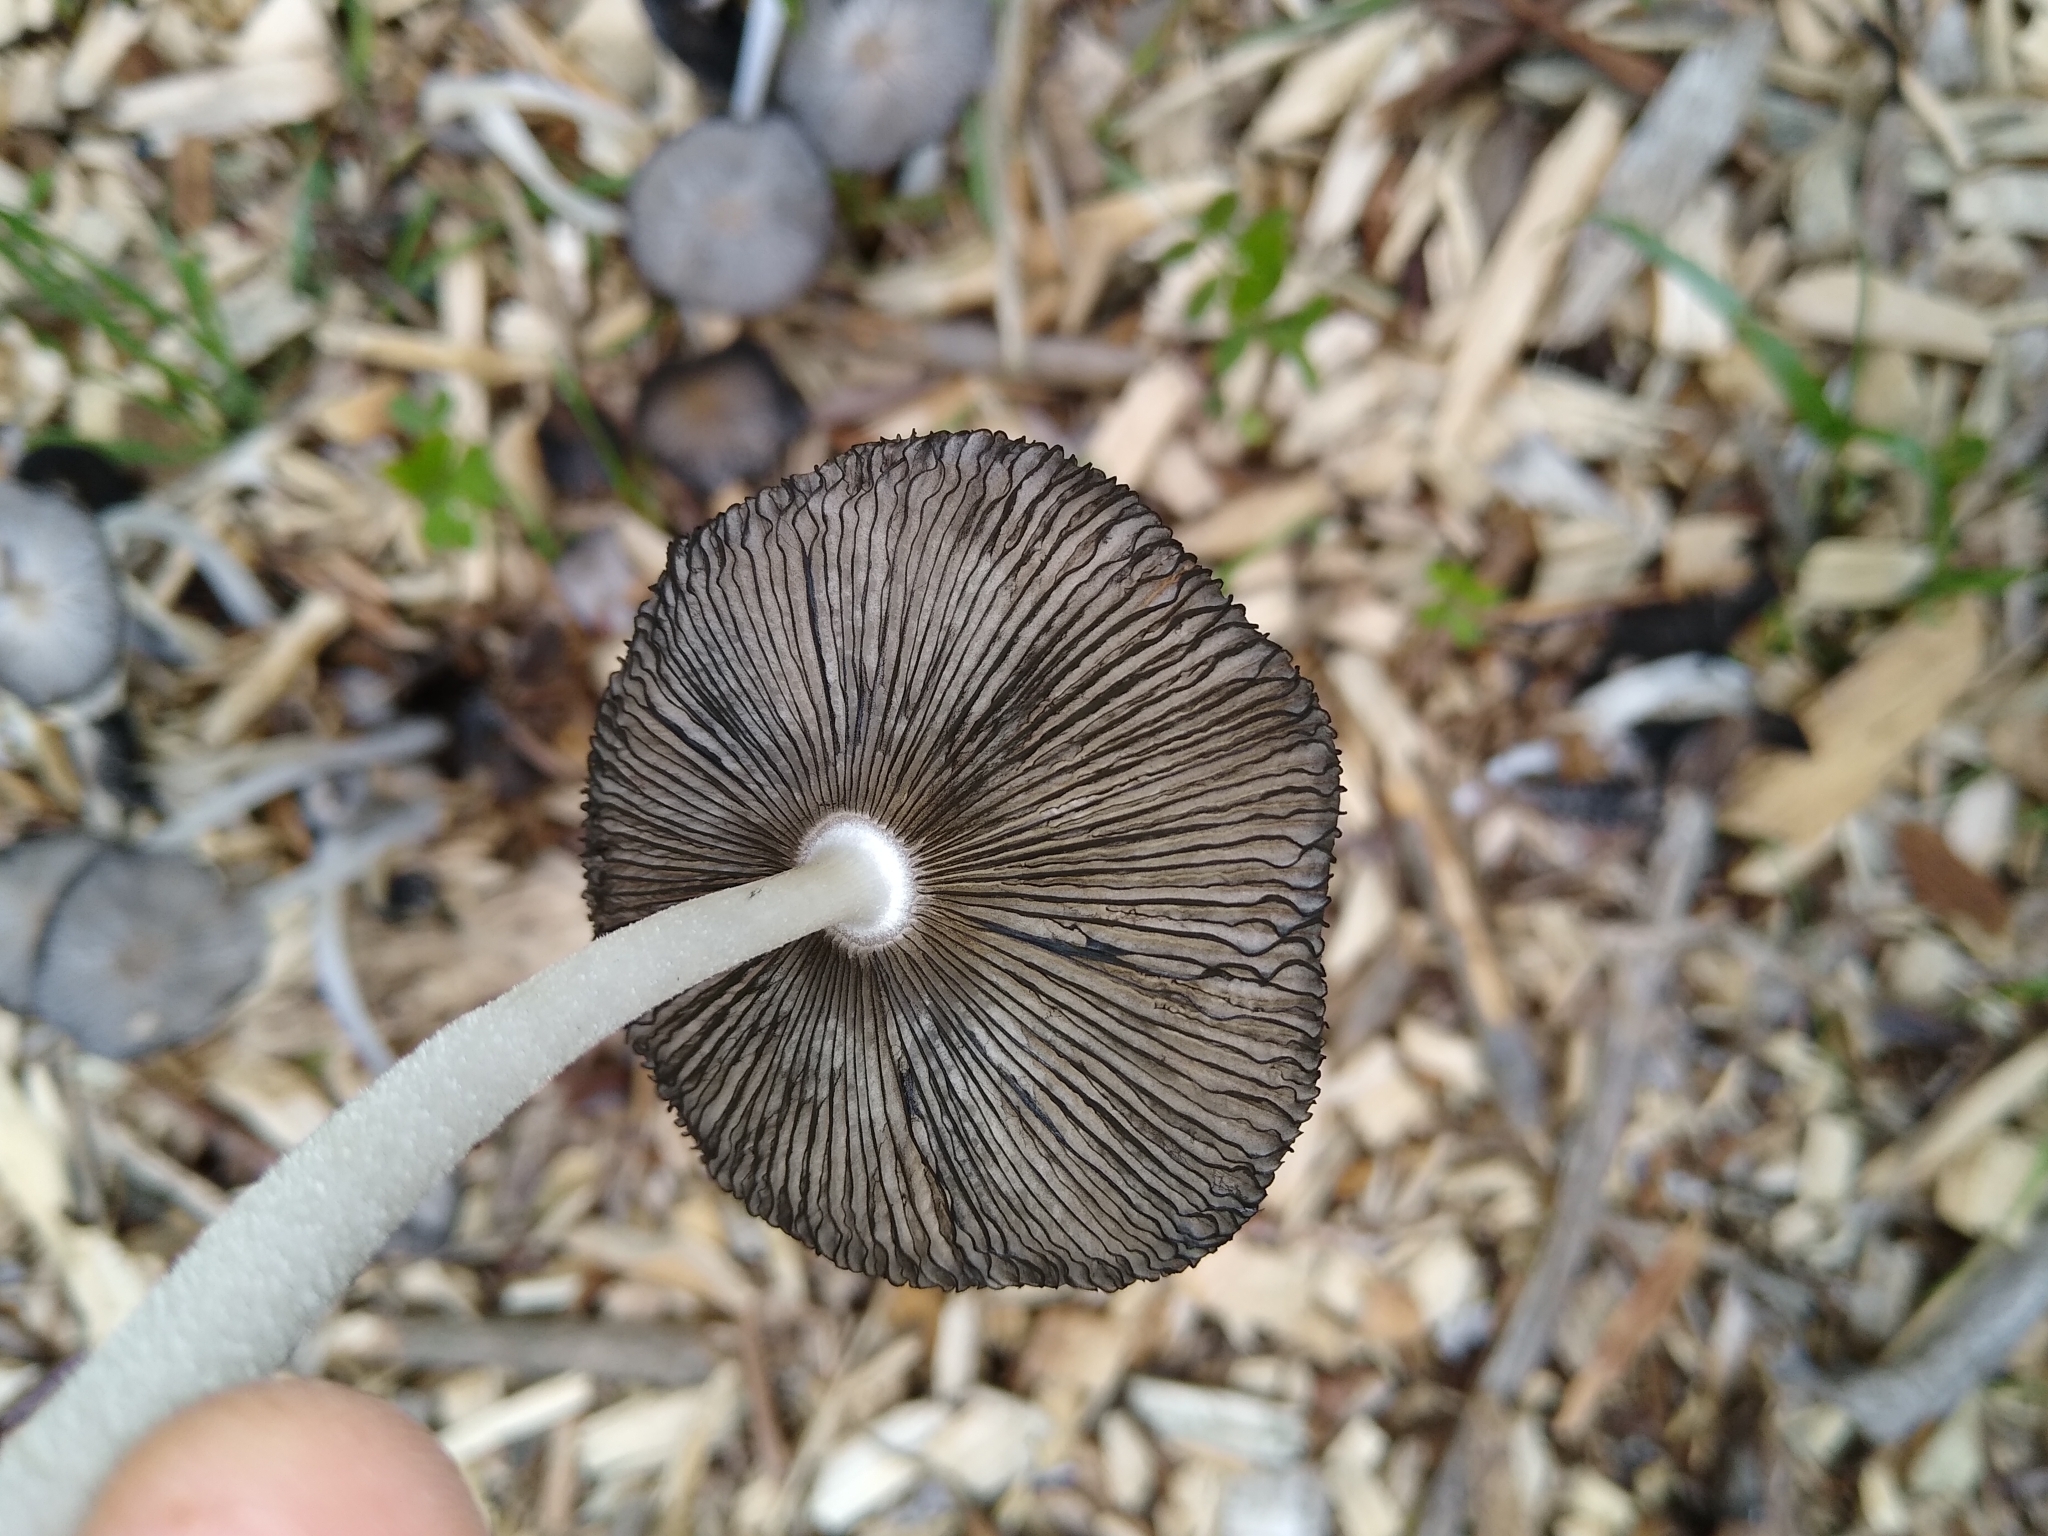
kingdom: Fungi
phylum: Basidiomycota
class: Agaricomycetes
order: Agaricales
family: Psathyrellaceae
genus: Coprinopsis
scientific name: Coprinopsis lagopus
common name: Hare'sfoot inkcap
